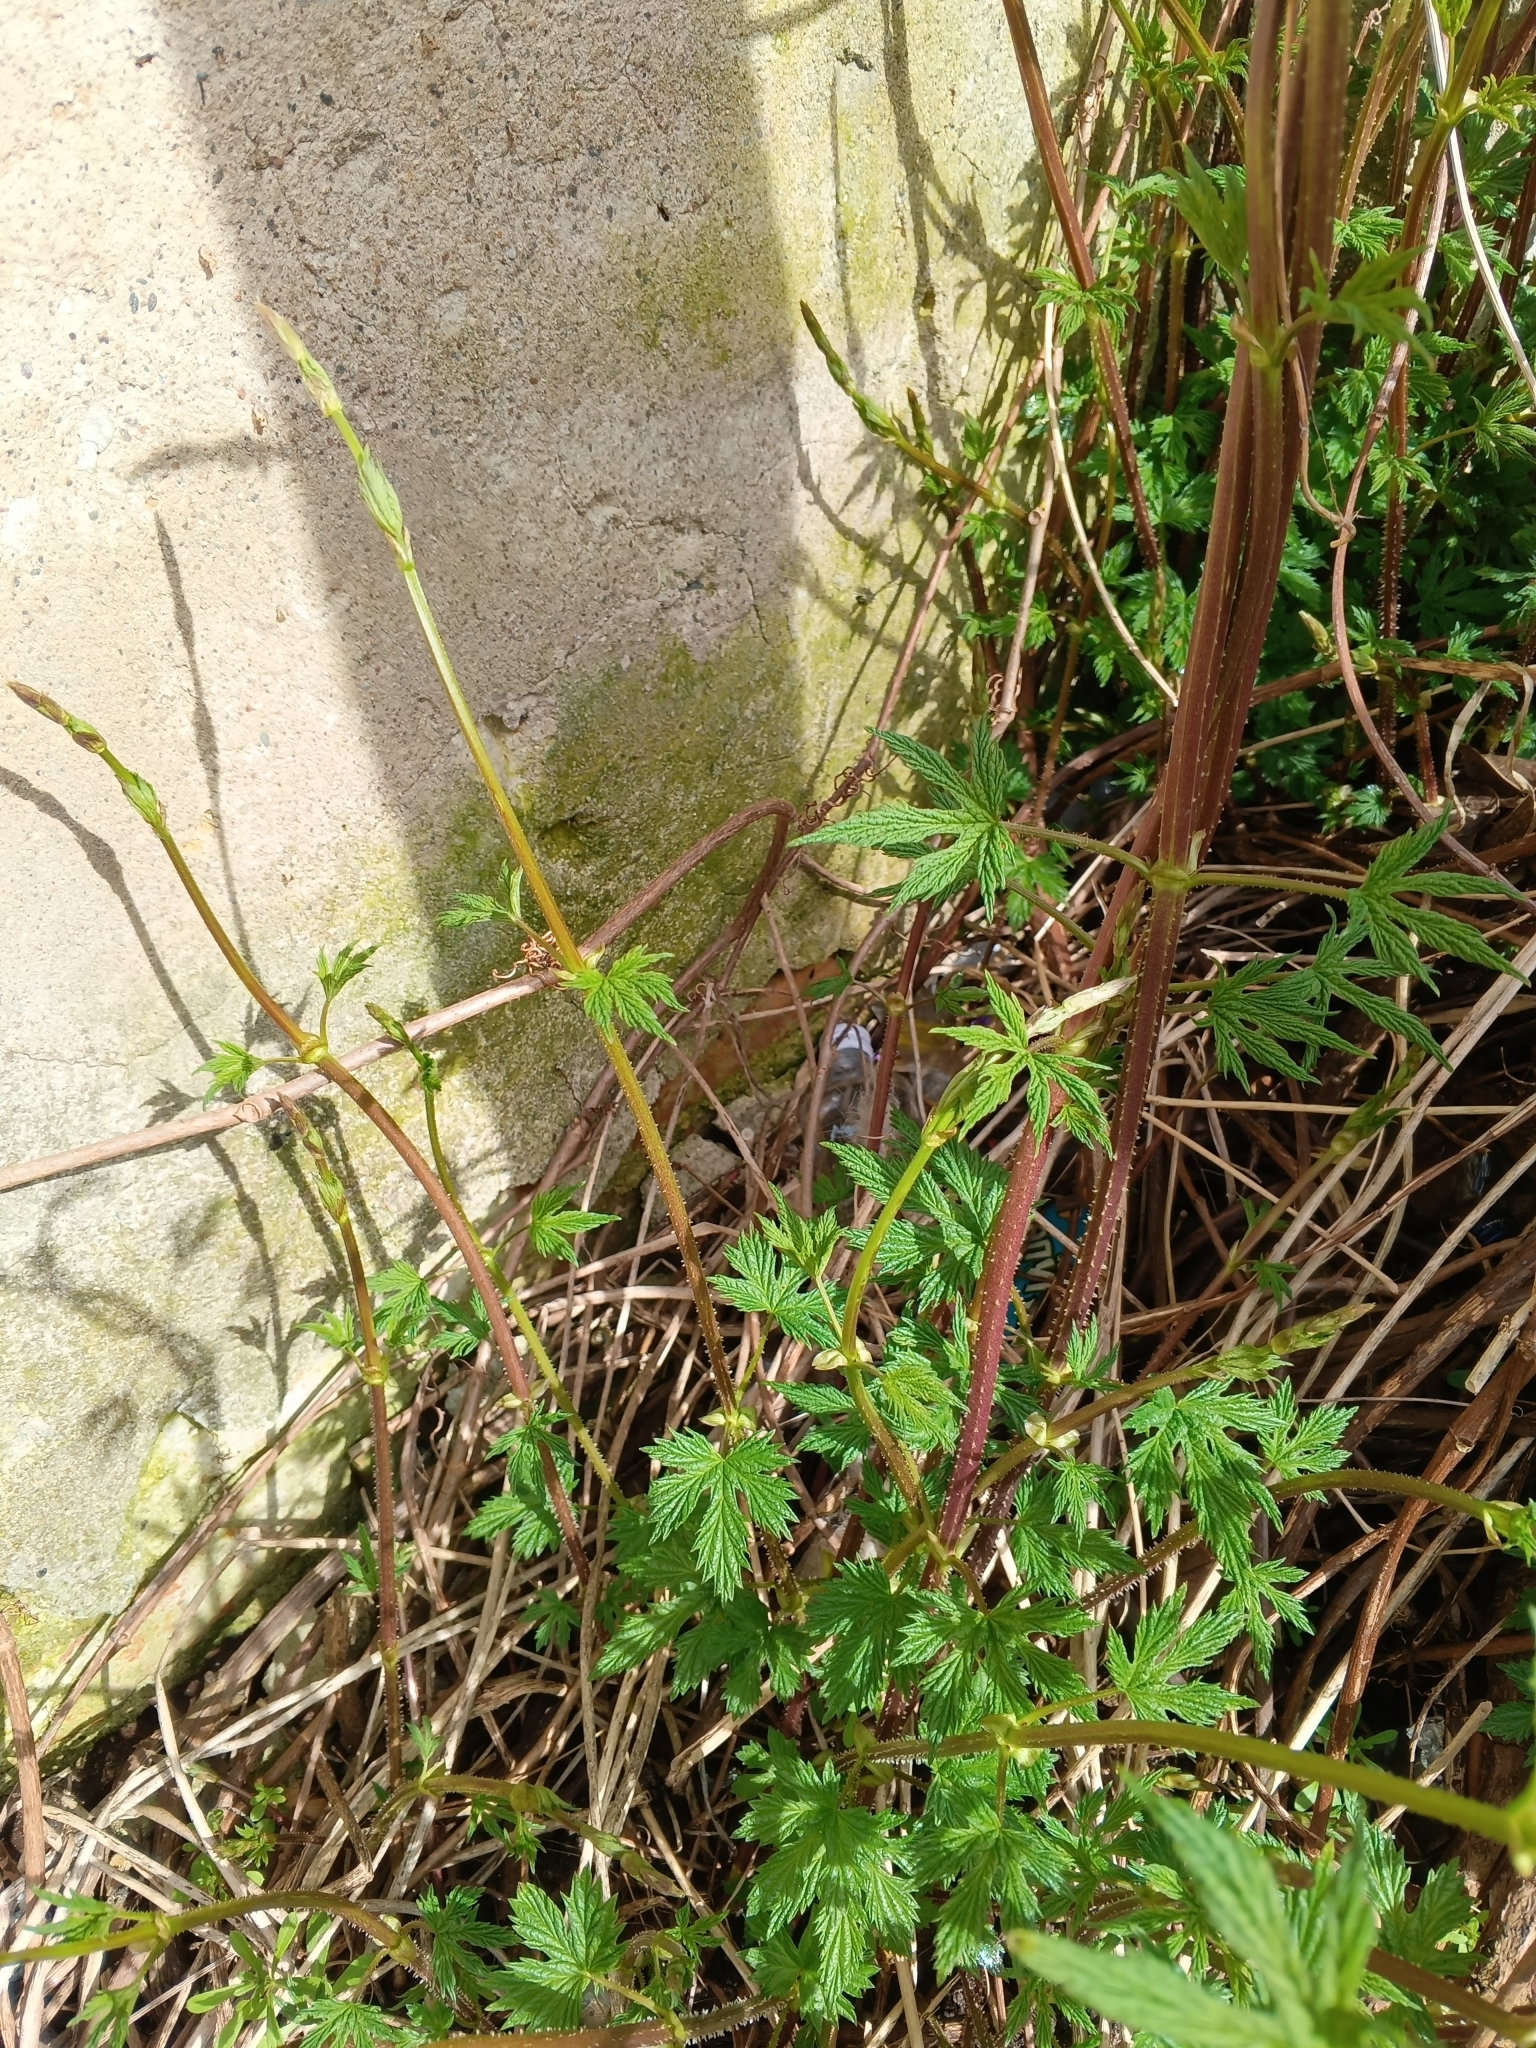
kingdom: Plantae
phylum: Tracheophyta
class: Magnoliopsida
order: Rosales
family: Cannabaceae
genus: Humulus
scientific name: Humulus lupulus
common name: Hop
